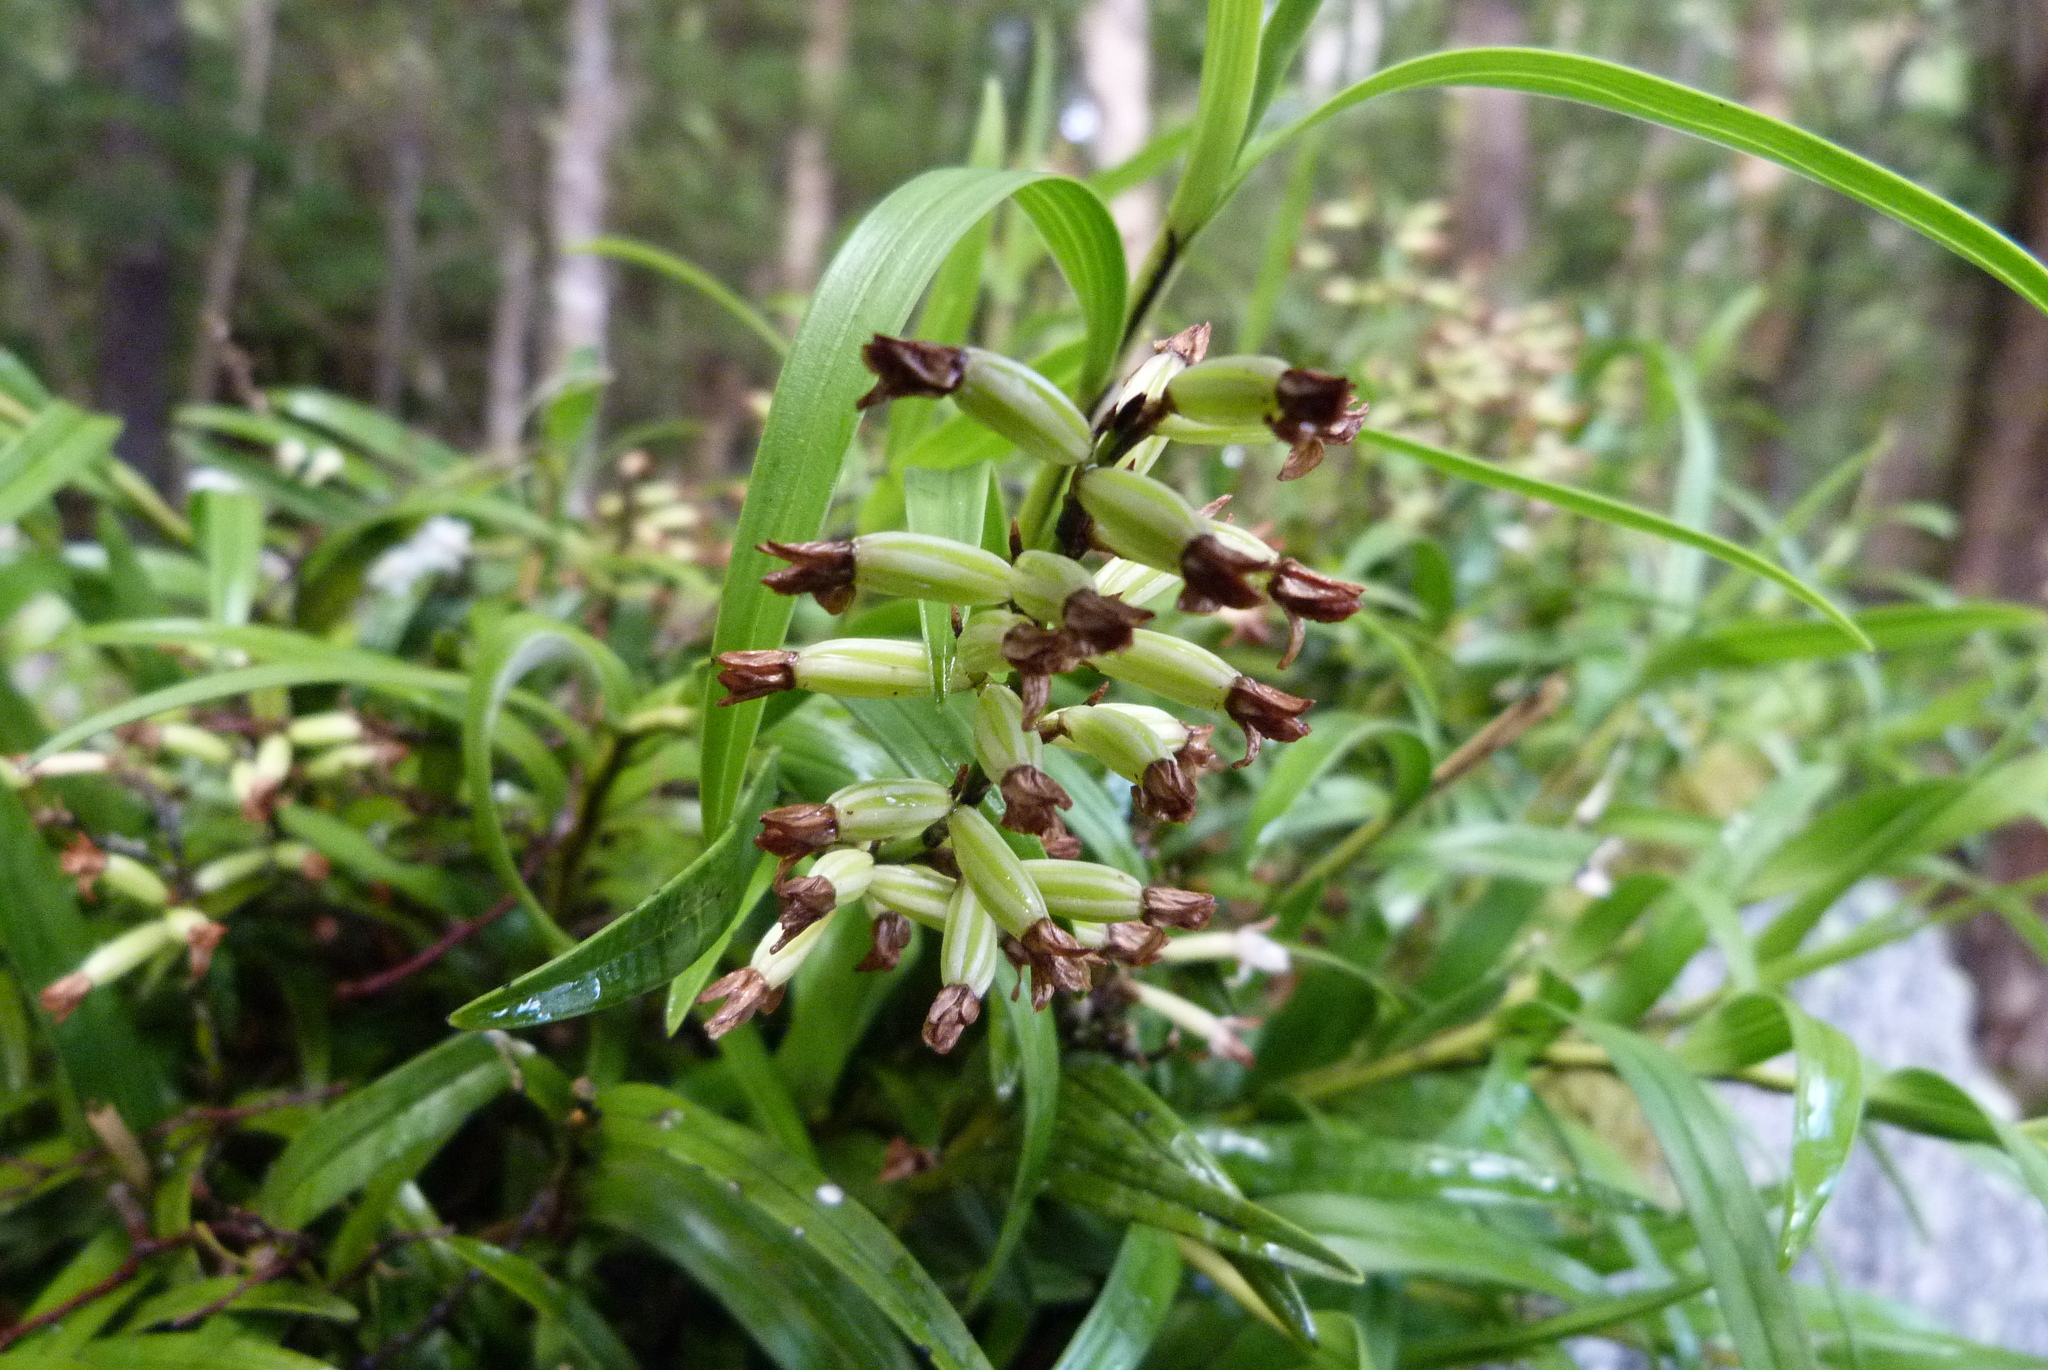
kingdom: Plantae
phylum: Tracheophyta
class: Liliopsida
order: Asparagales
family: Orchidaceae
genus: Earina
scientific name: Earina autumnalis
